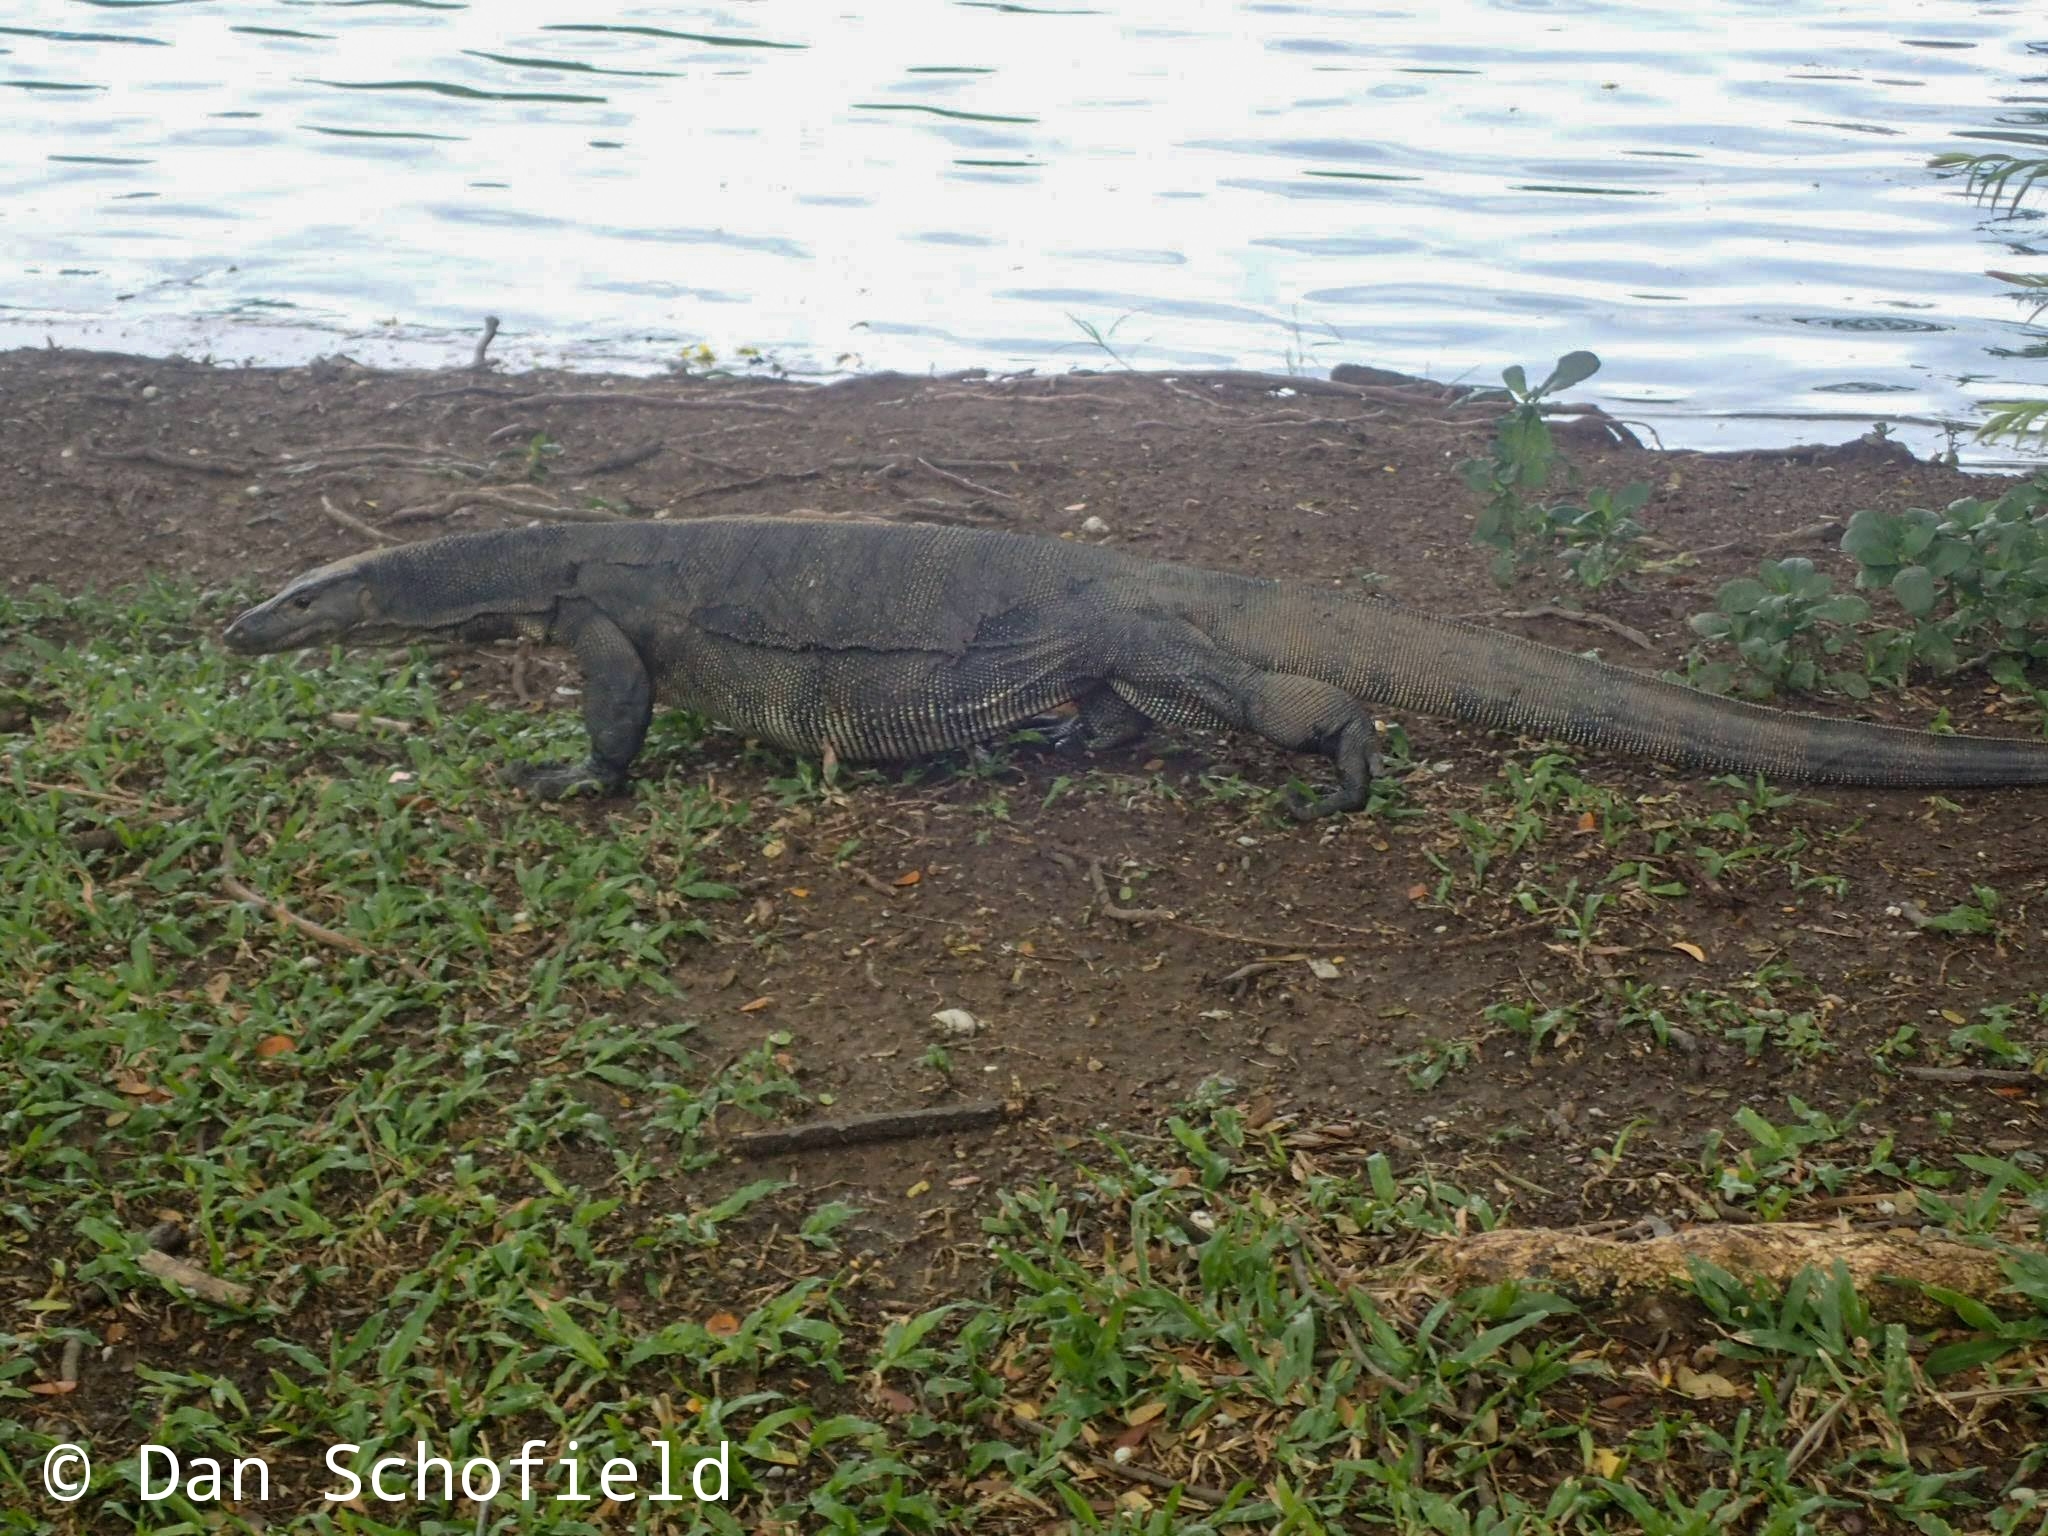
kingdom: Animalia
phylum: Chordata
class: Squamata
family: Varanidae
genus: Varanus
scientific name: Varanus salvator
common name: Common water monitor
